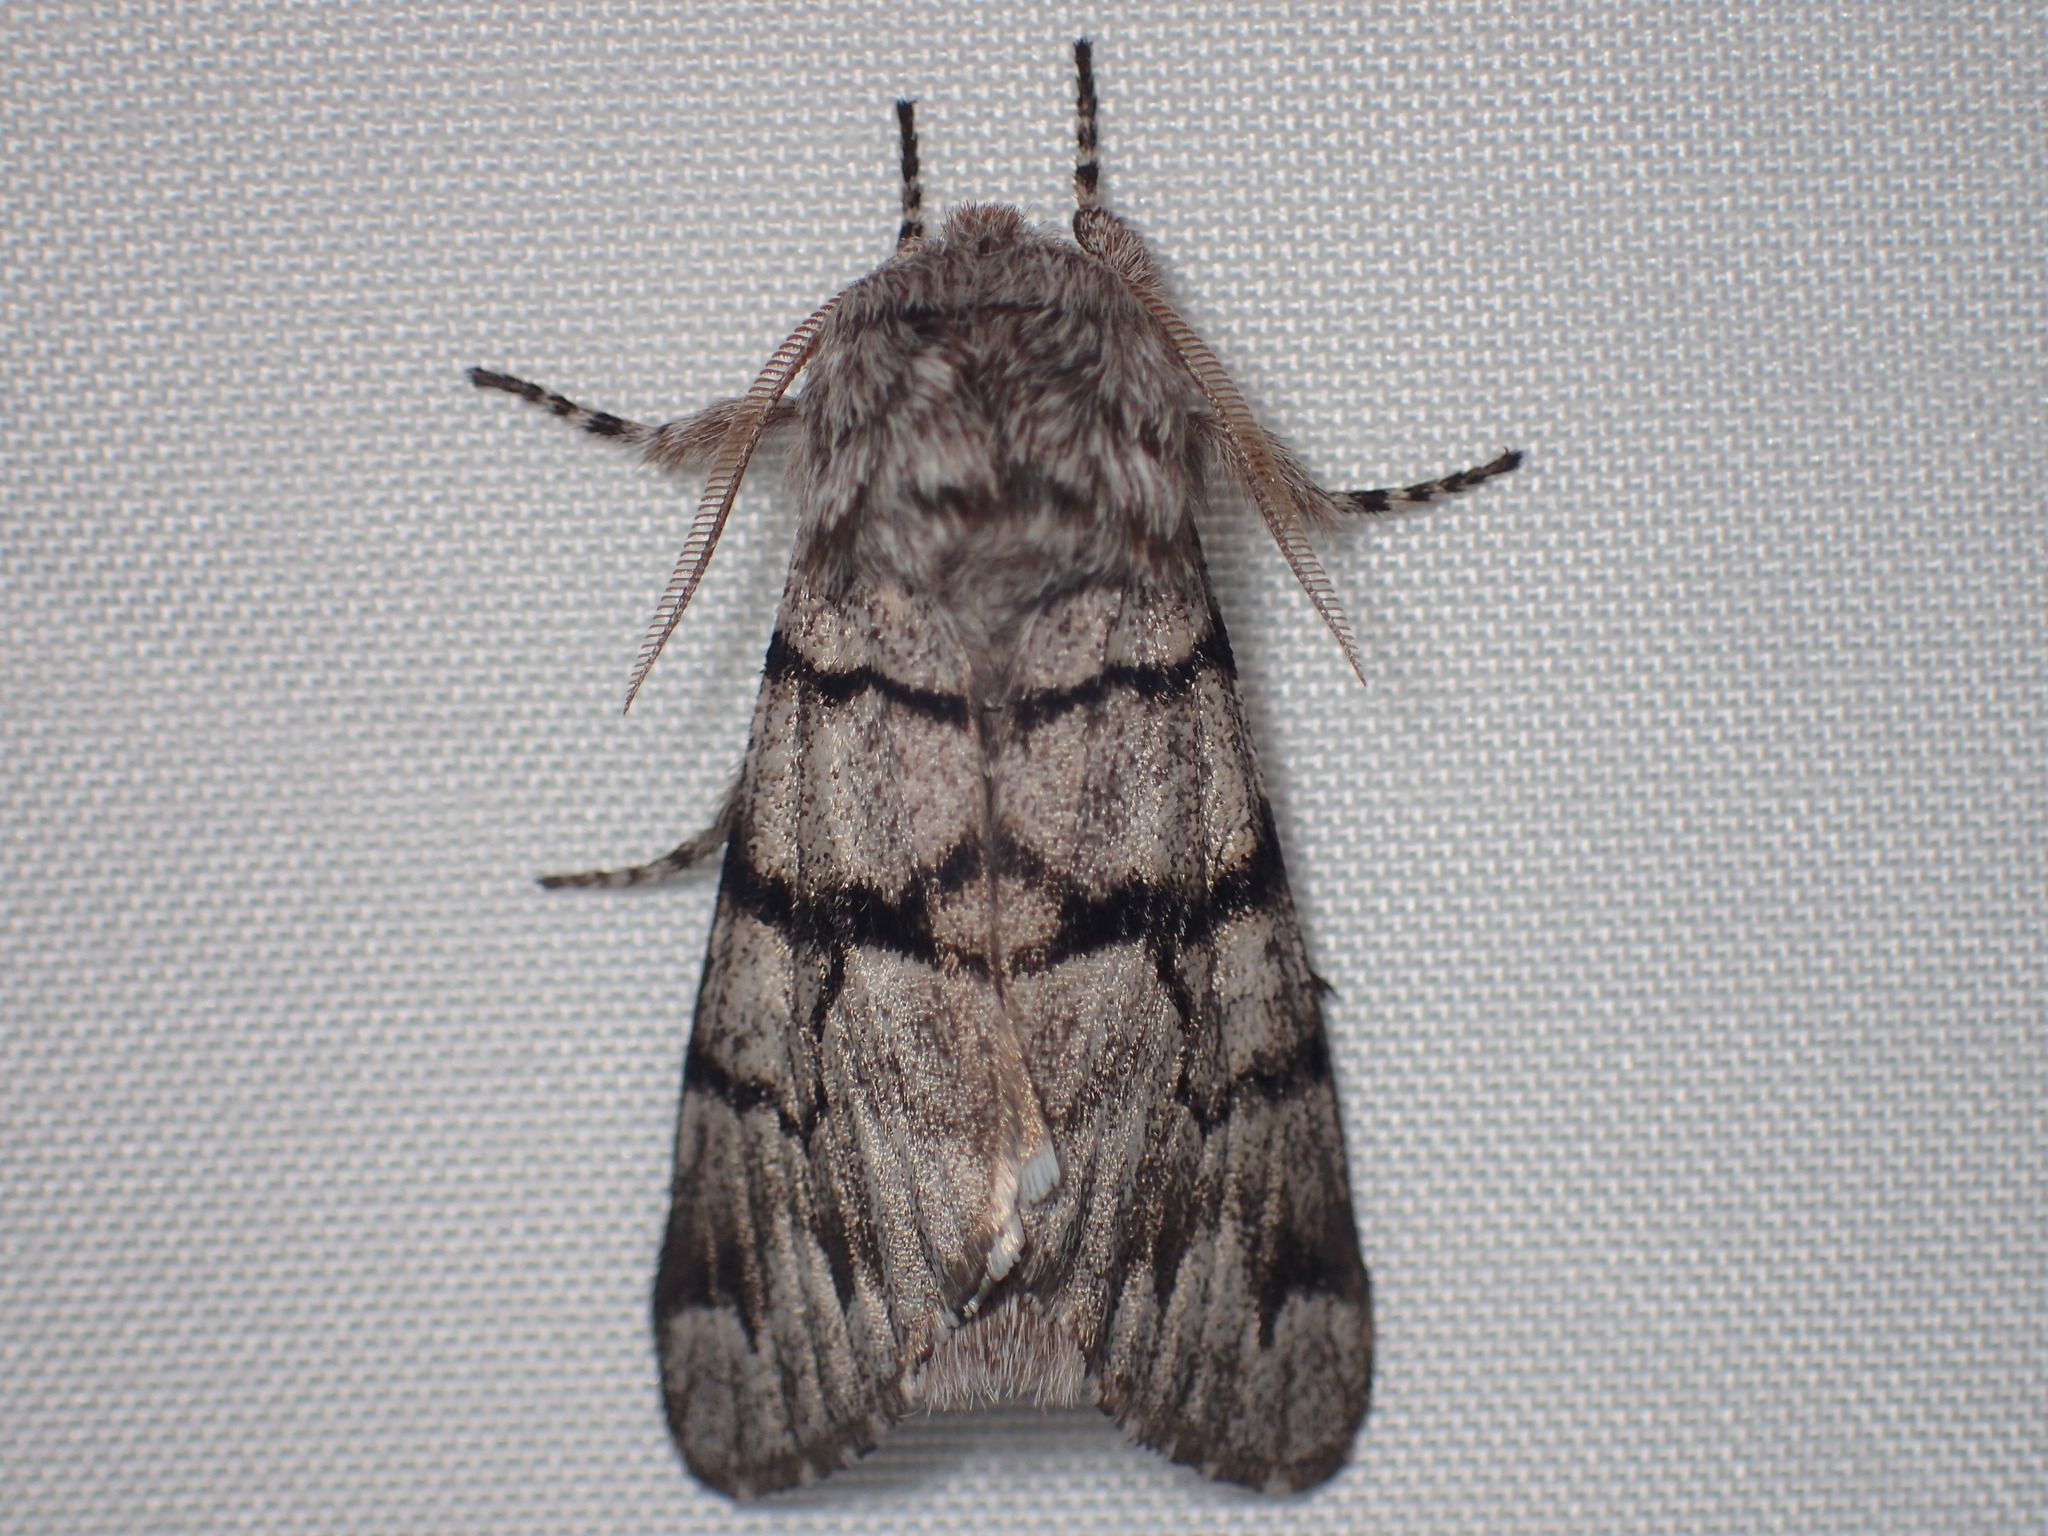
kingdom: Animalia
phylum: Arthropoda
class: Insecta
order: Lepidoptera
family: Noctuidae
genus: Panthea
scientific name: Panthea furcilla
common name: Eastern panthea moth
